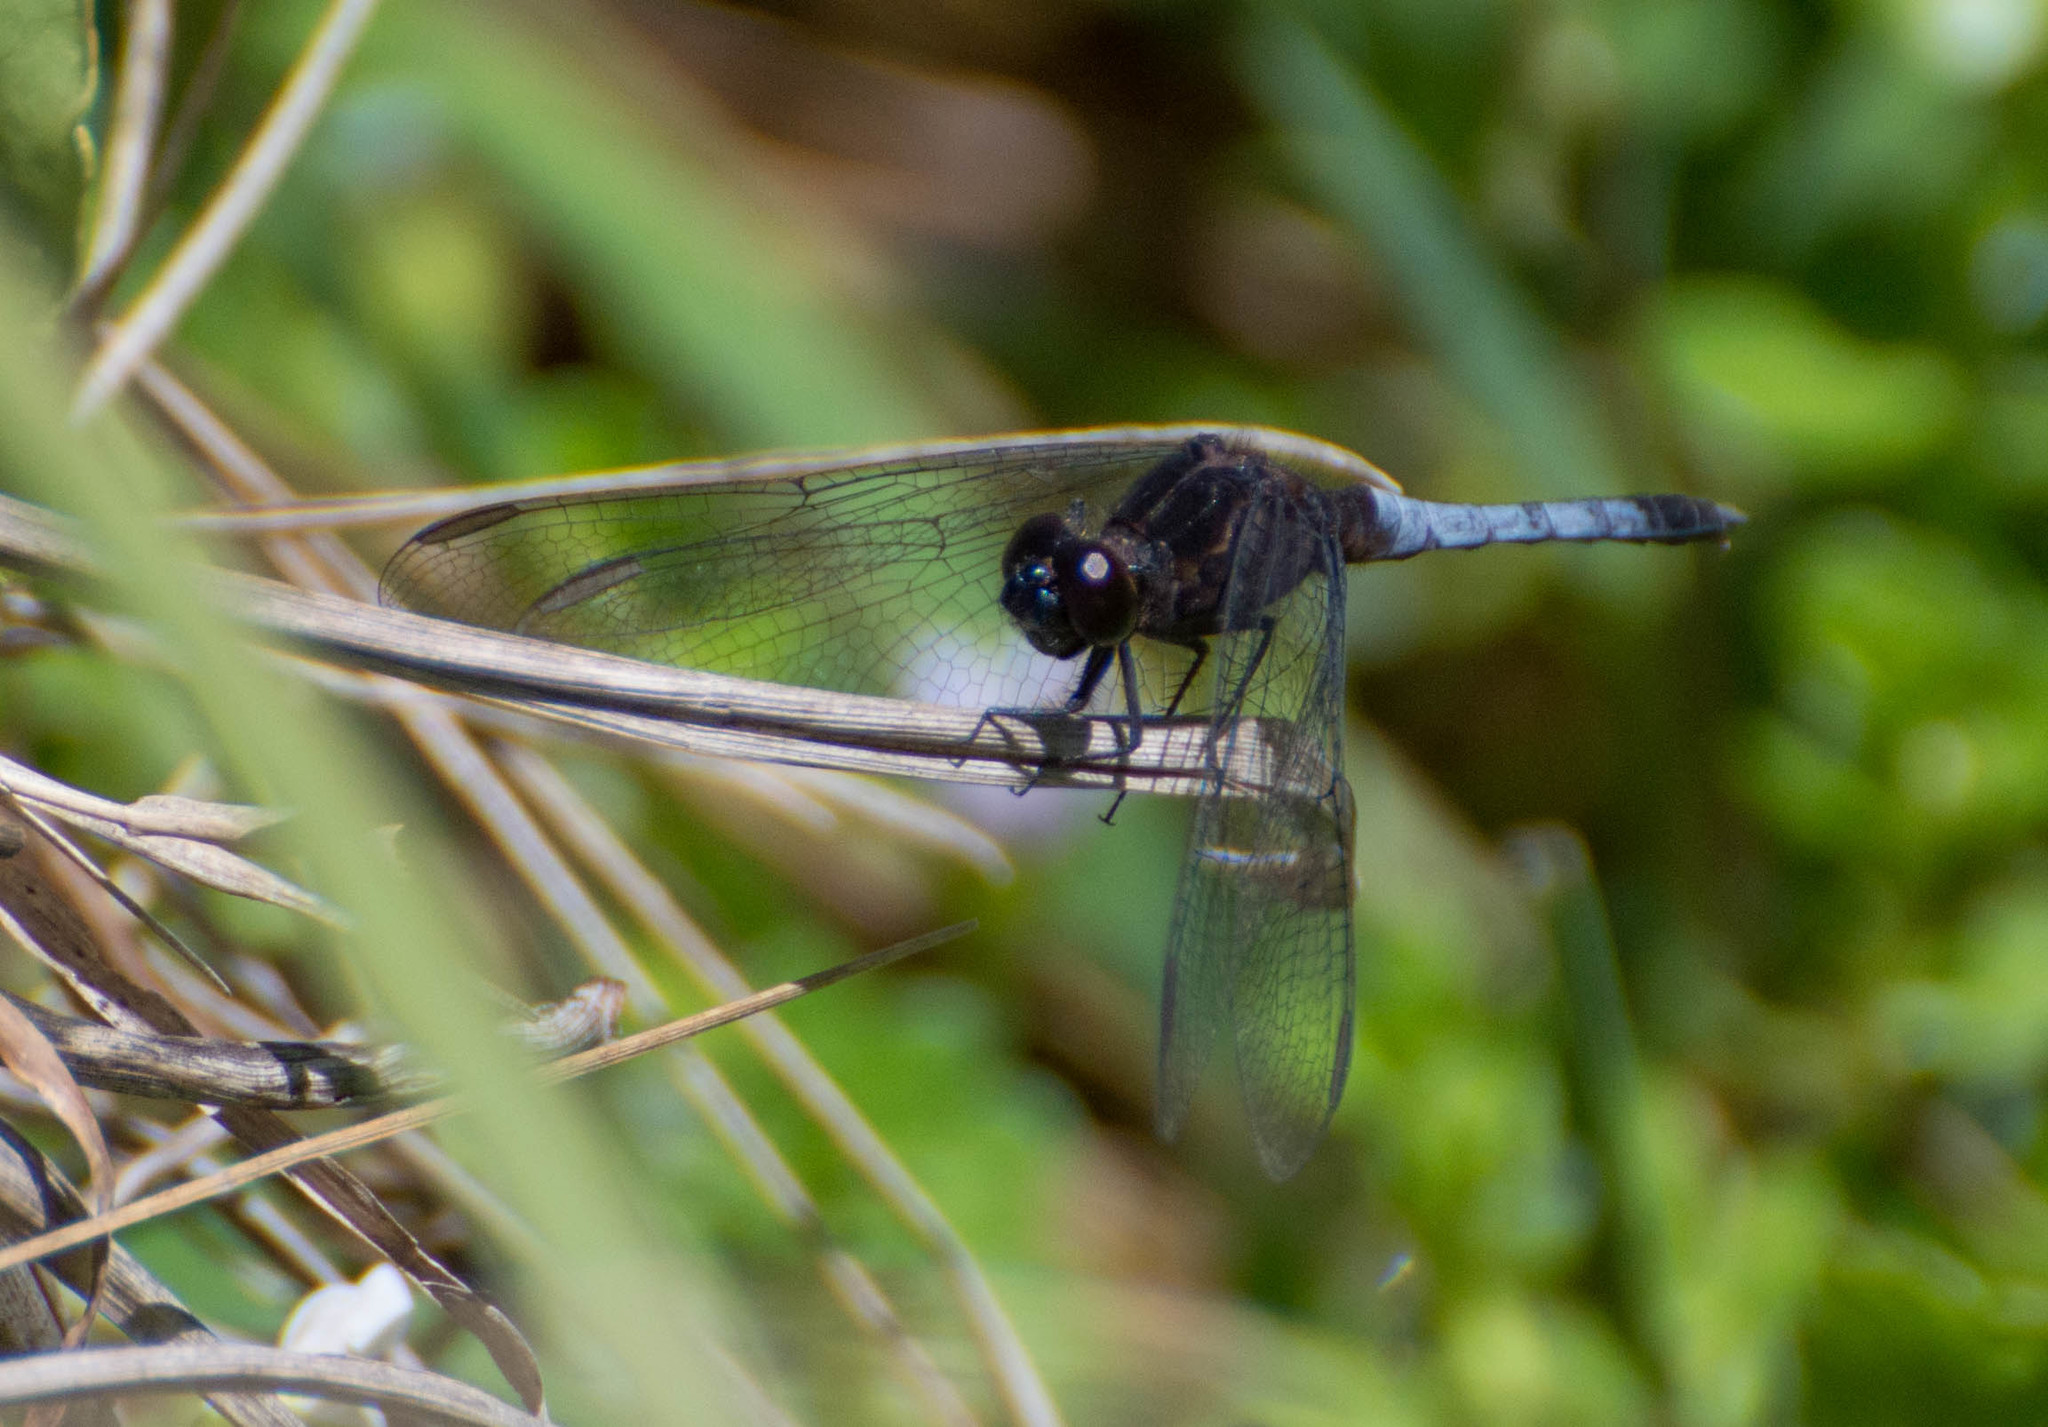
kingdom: Animalia
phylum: Arthropoda
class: Insecta
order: Odonata
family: Libellulidae
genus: Erythrodiplax
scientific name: Erythrodiplax media
